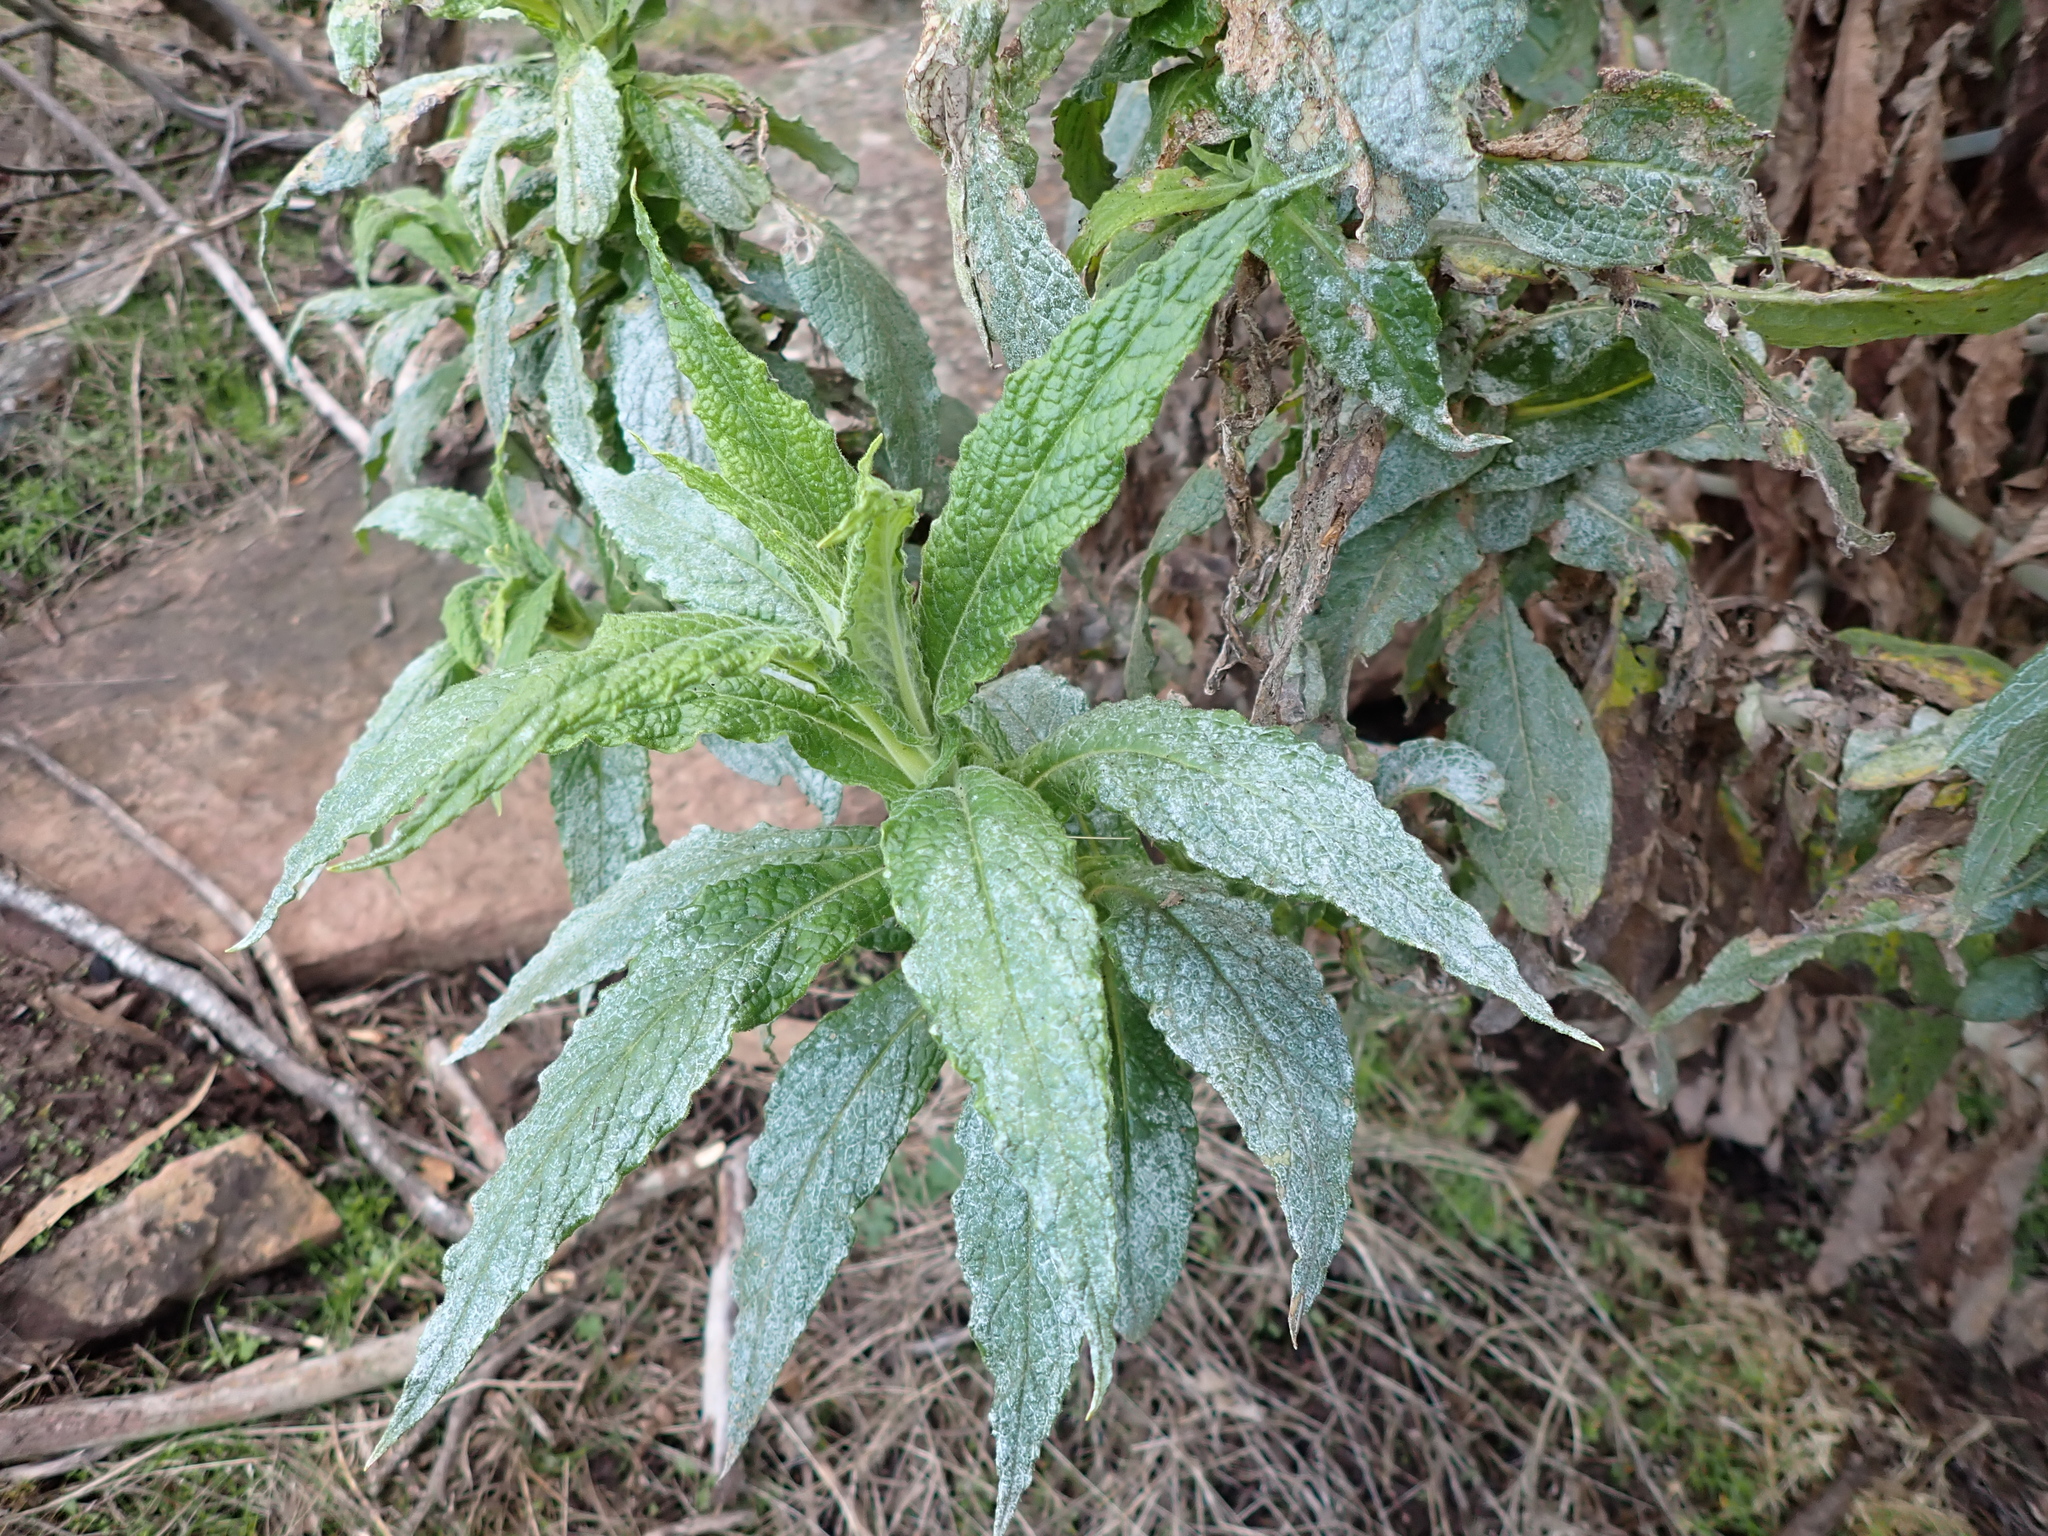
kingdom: Plantae
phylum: Tracheophyta
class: Magnoliopsida
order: Asterales
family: Asteraceae
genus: Calomeria
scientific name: Calomeria amaranthoides
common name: Incenseplant
